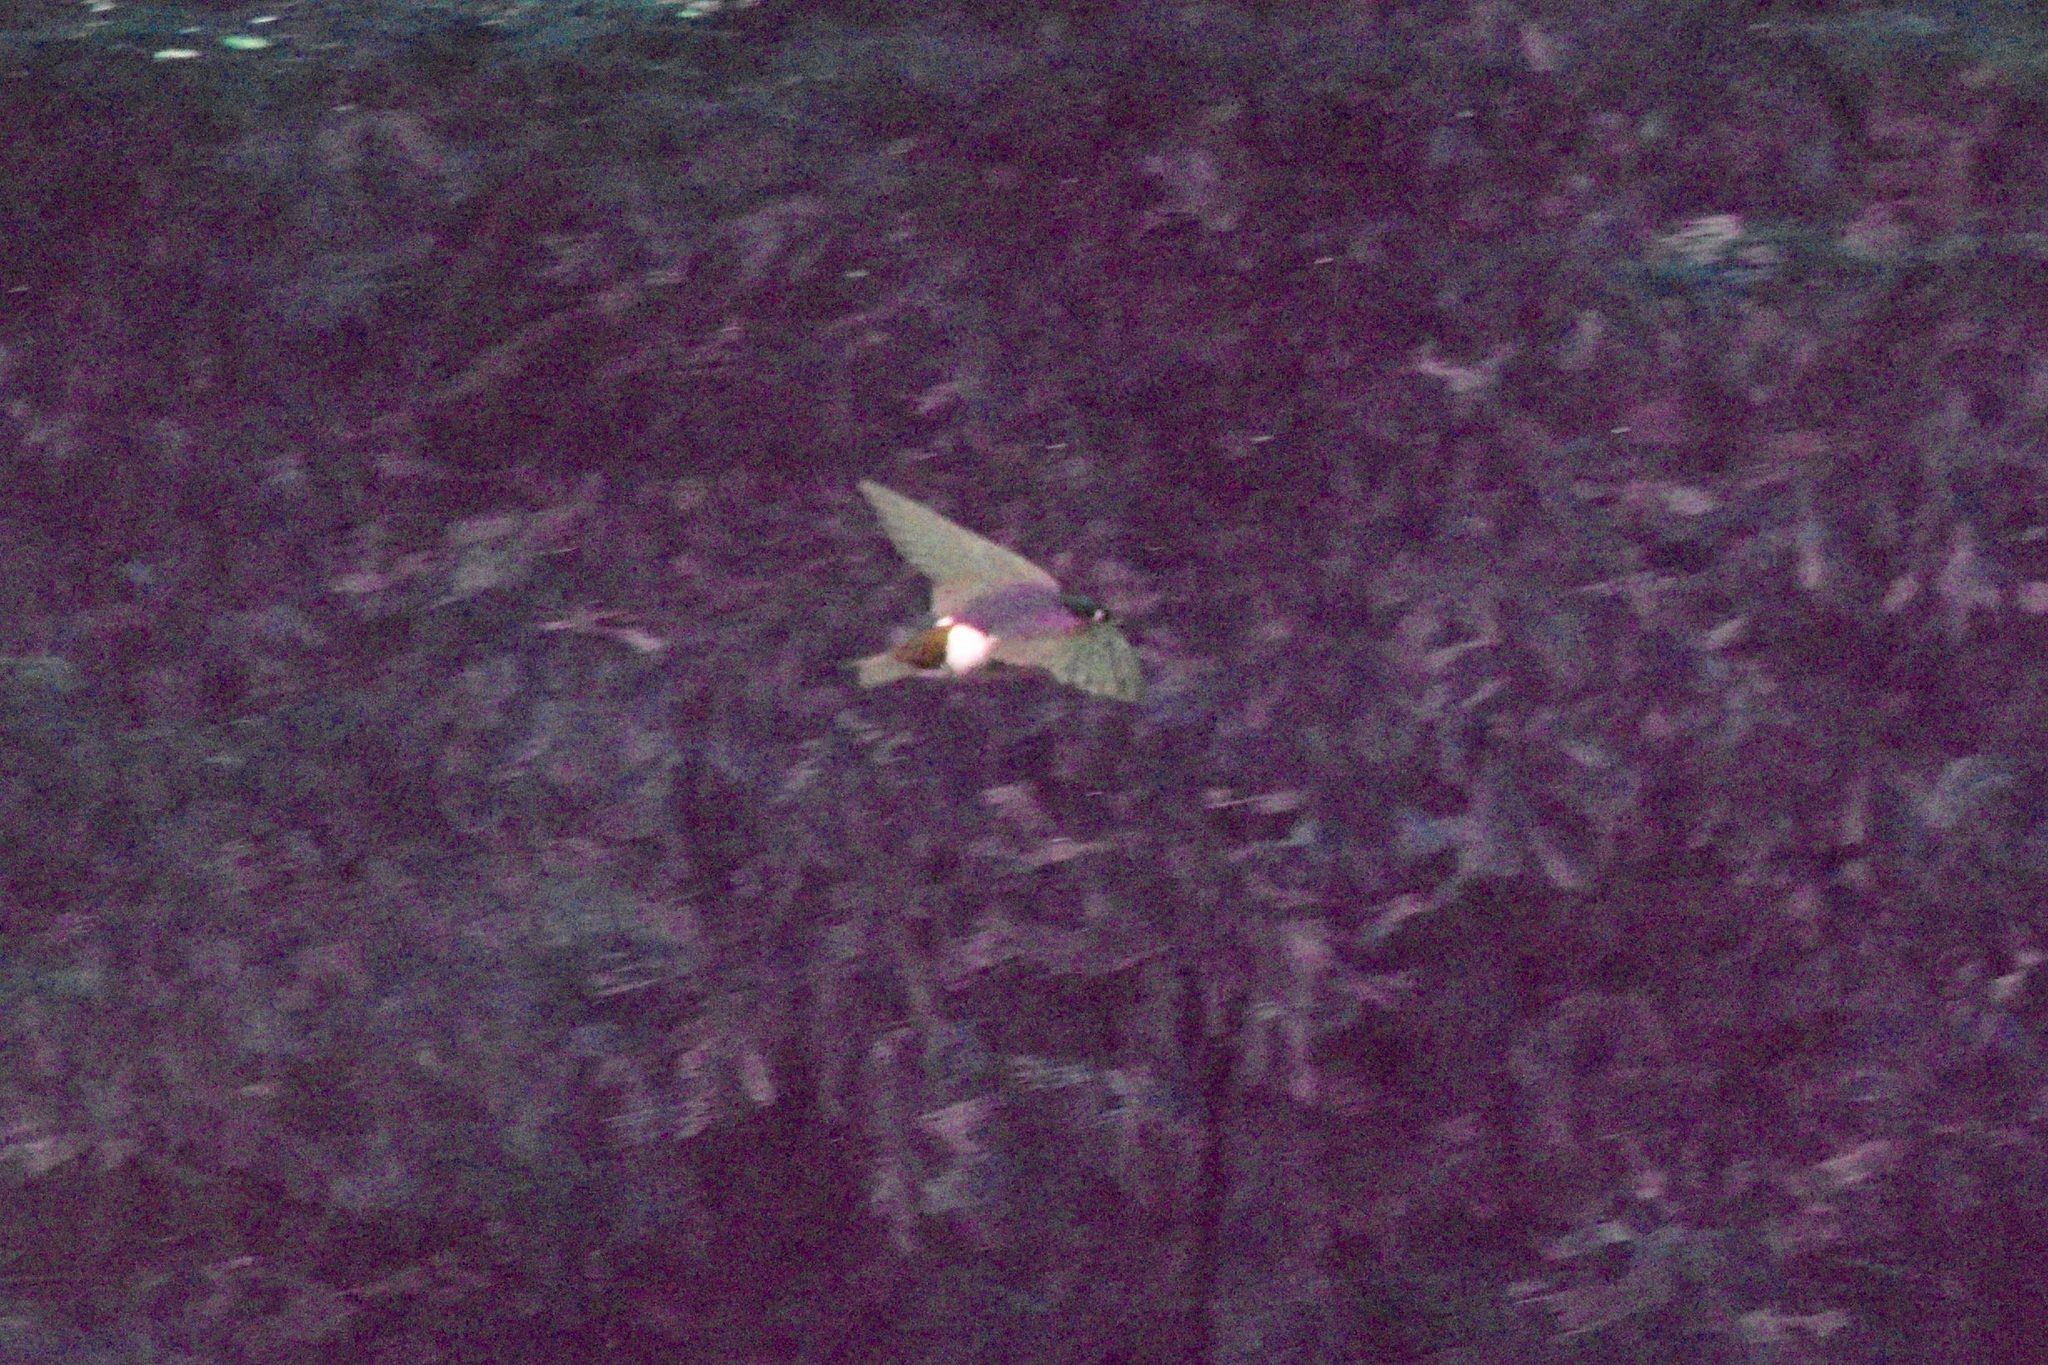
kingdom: Animalia
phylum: Chordata
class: Aves
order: Passeriformes
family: Hirundinidae
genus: Tachycineta
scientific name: Tachycineta thalassina
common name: Violet-green swallow
